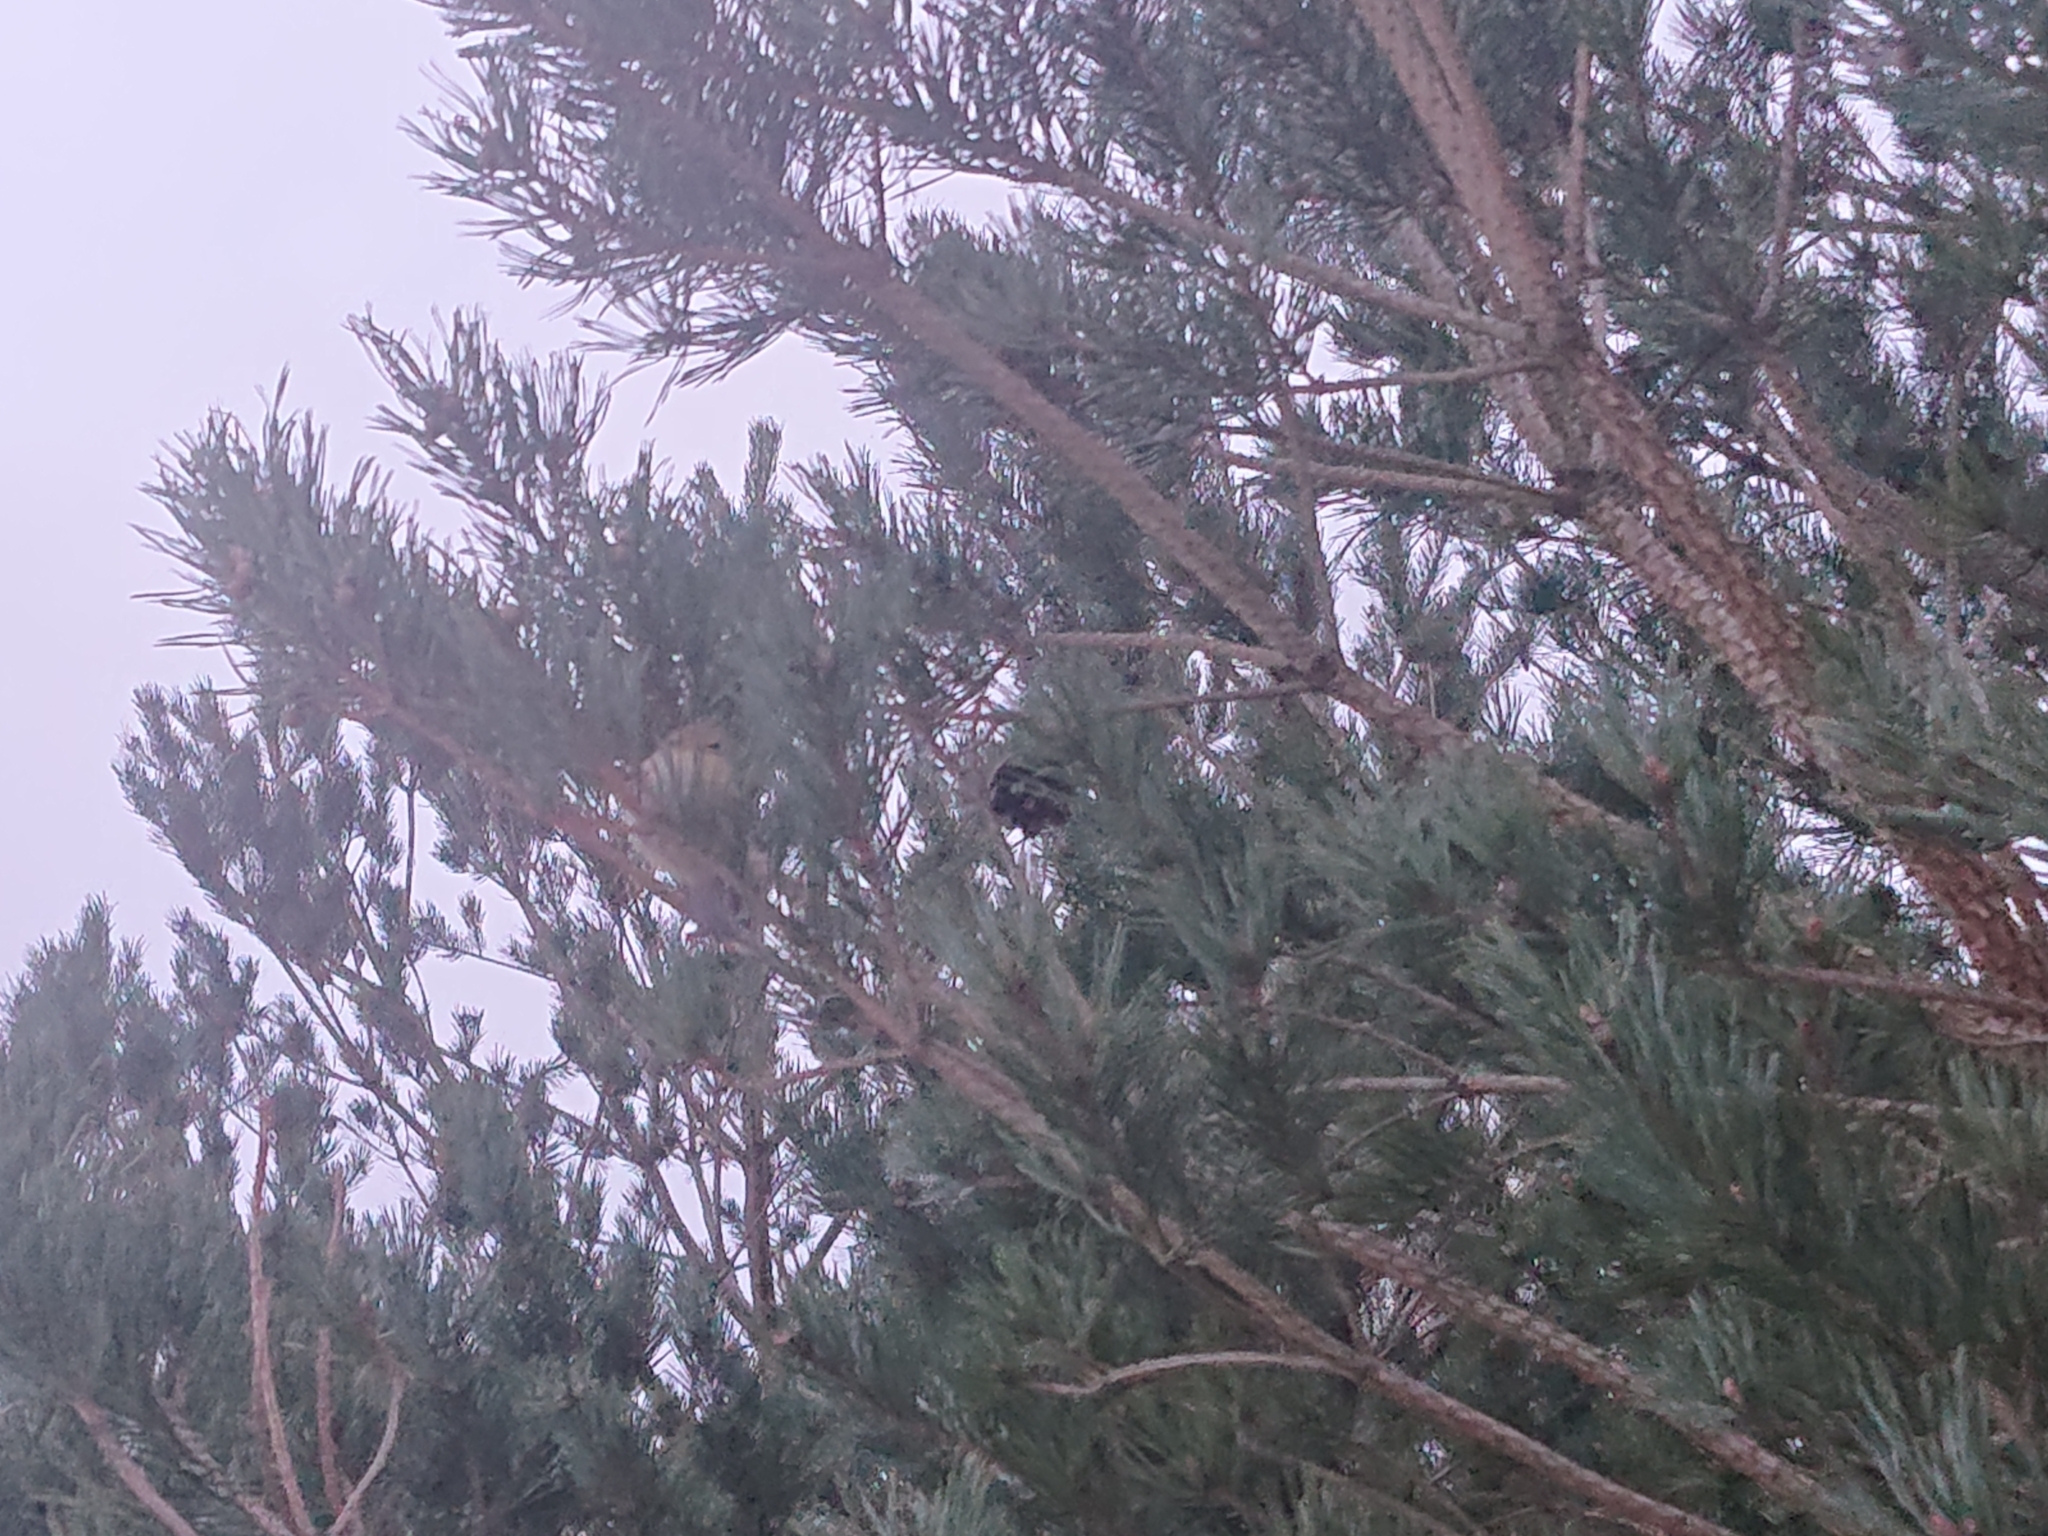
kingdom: Animalia
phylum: Chordata
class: Aves
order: Passeriformes
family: Regulidae
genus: Regulus
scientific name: Regulus regulus
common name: Goldcrest
